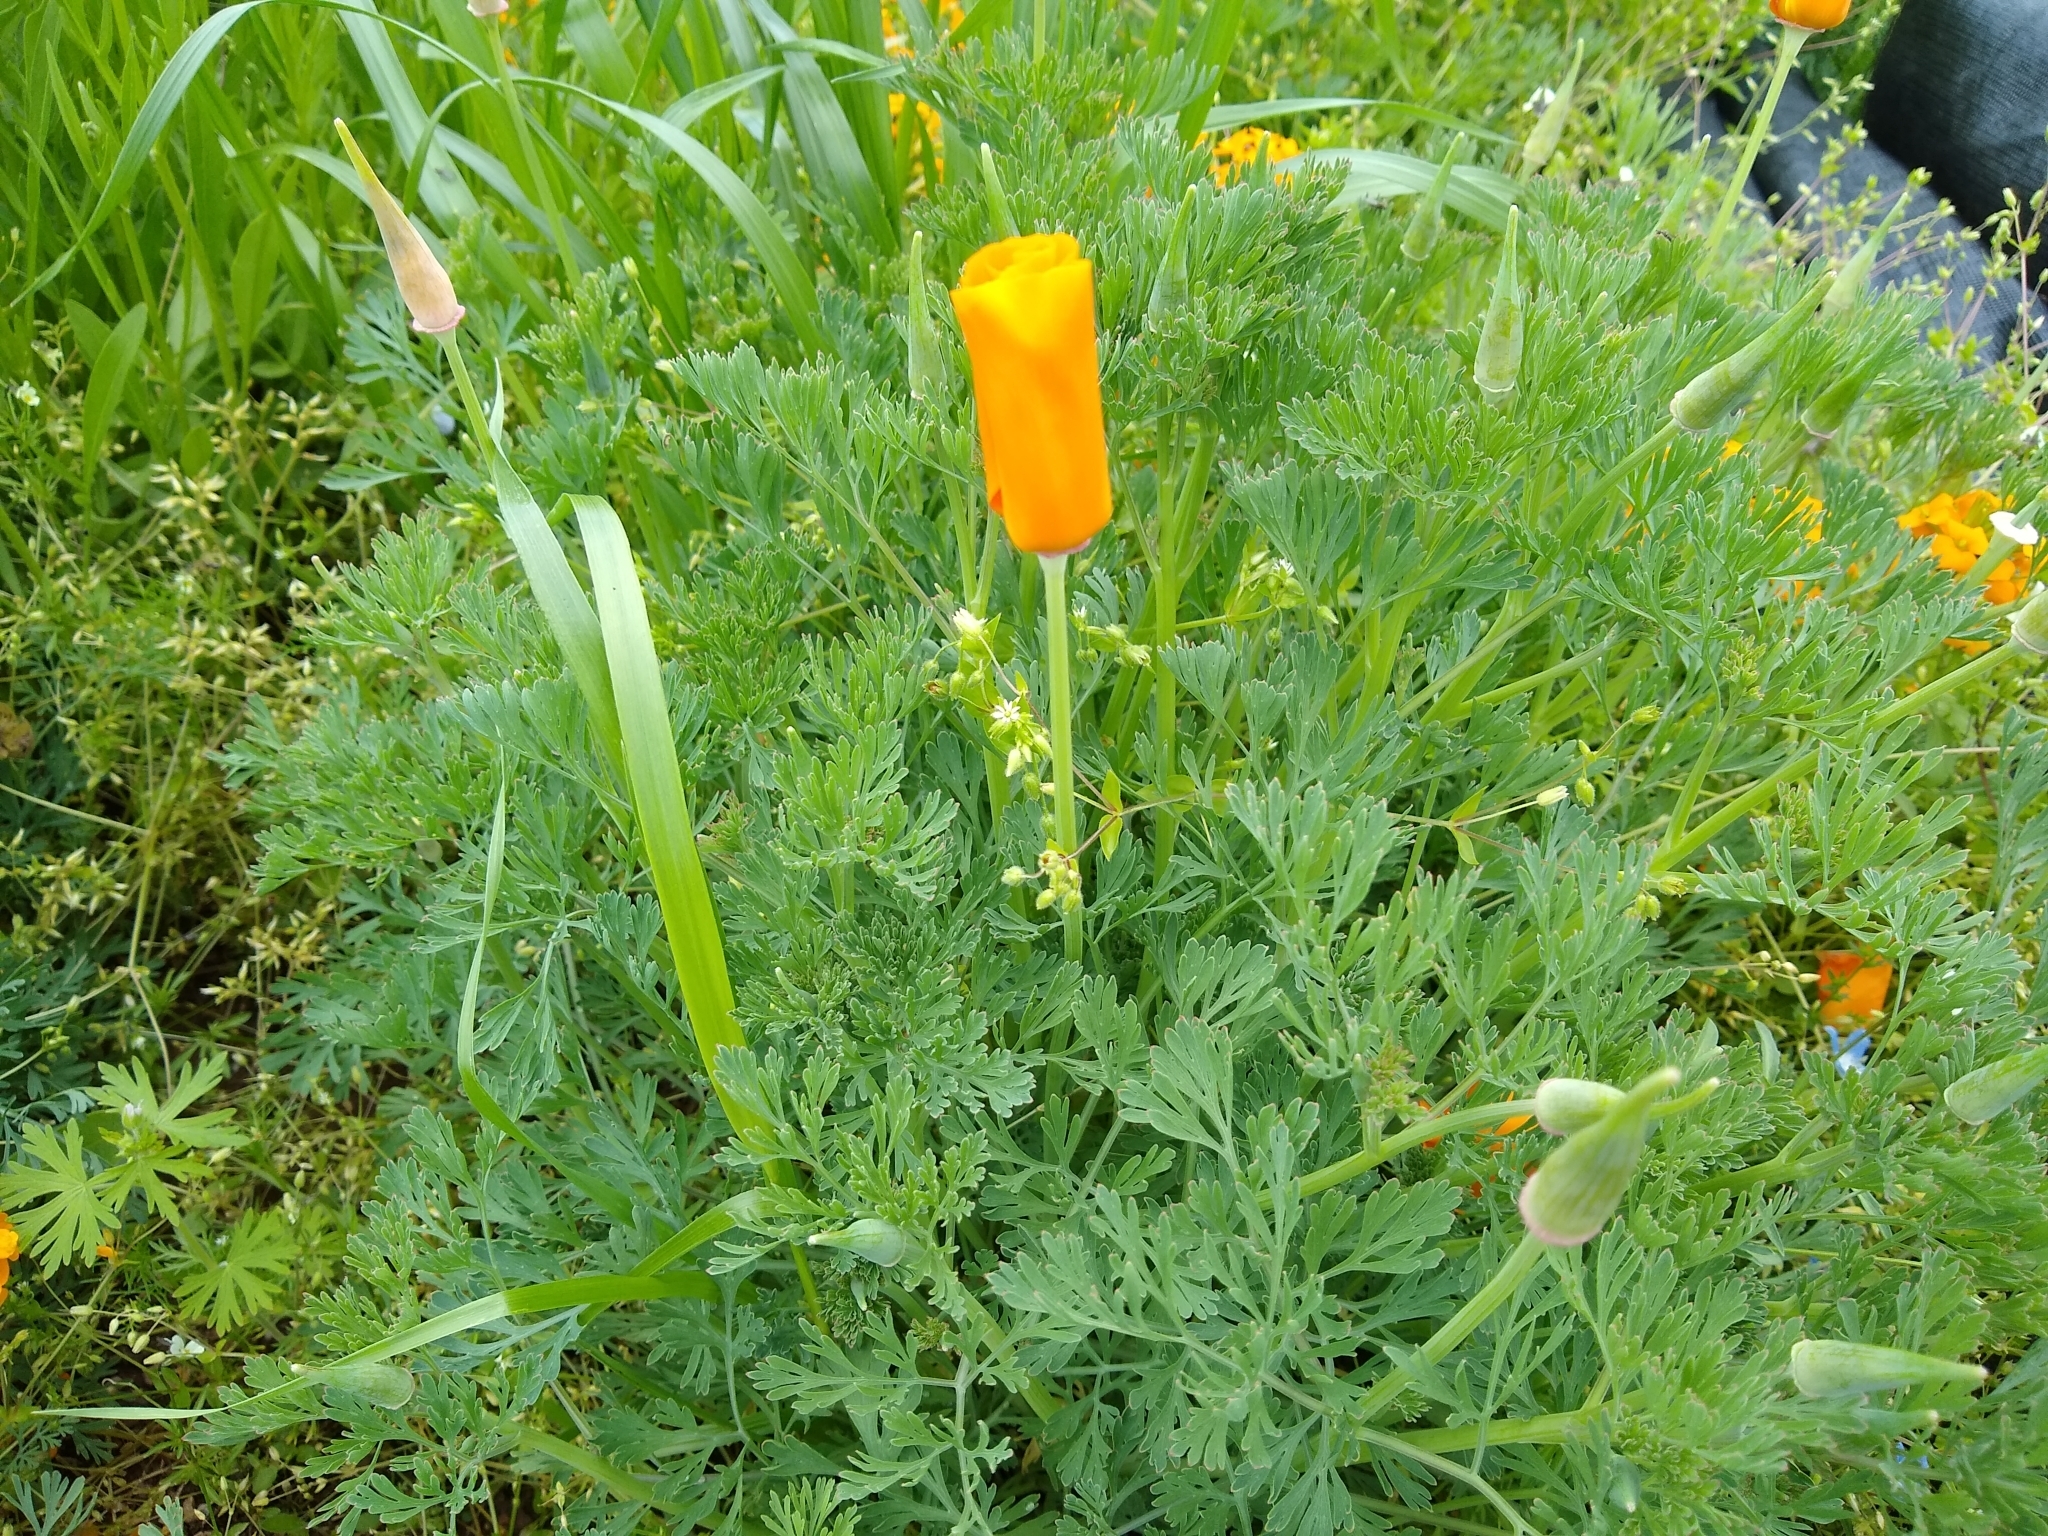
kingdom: Plantae
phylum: Tracheophyta
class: Magnoliopsida
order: Ranunculales
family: Papaveraceae
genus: Eschscholzia
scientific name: Eschscholzia californica
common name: California poppy
